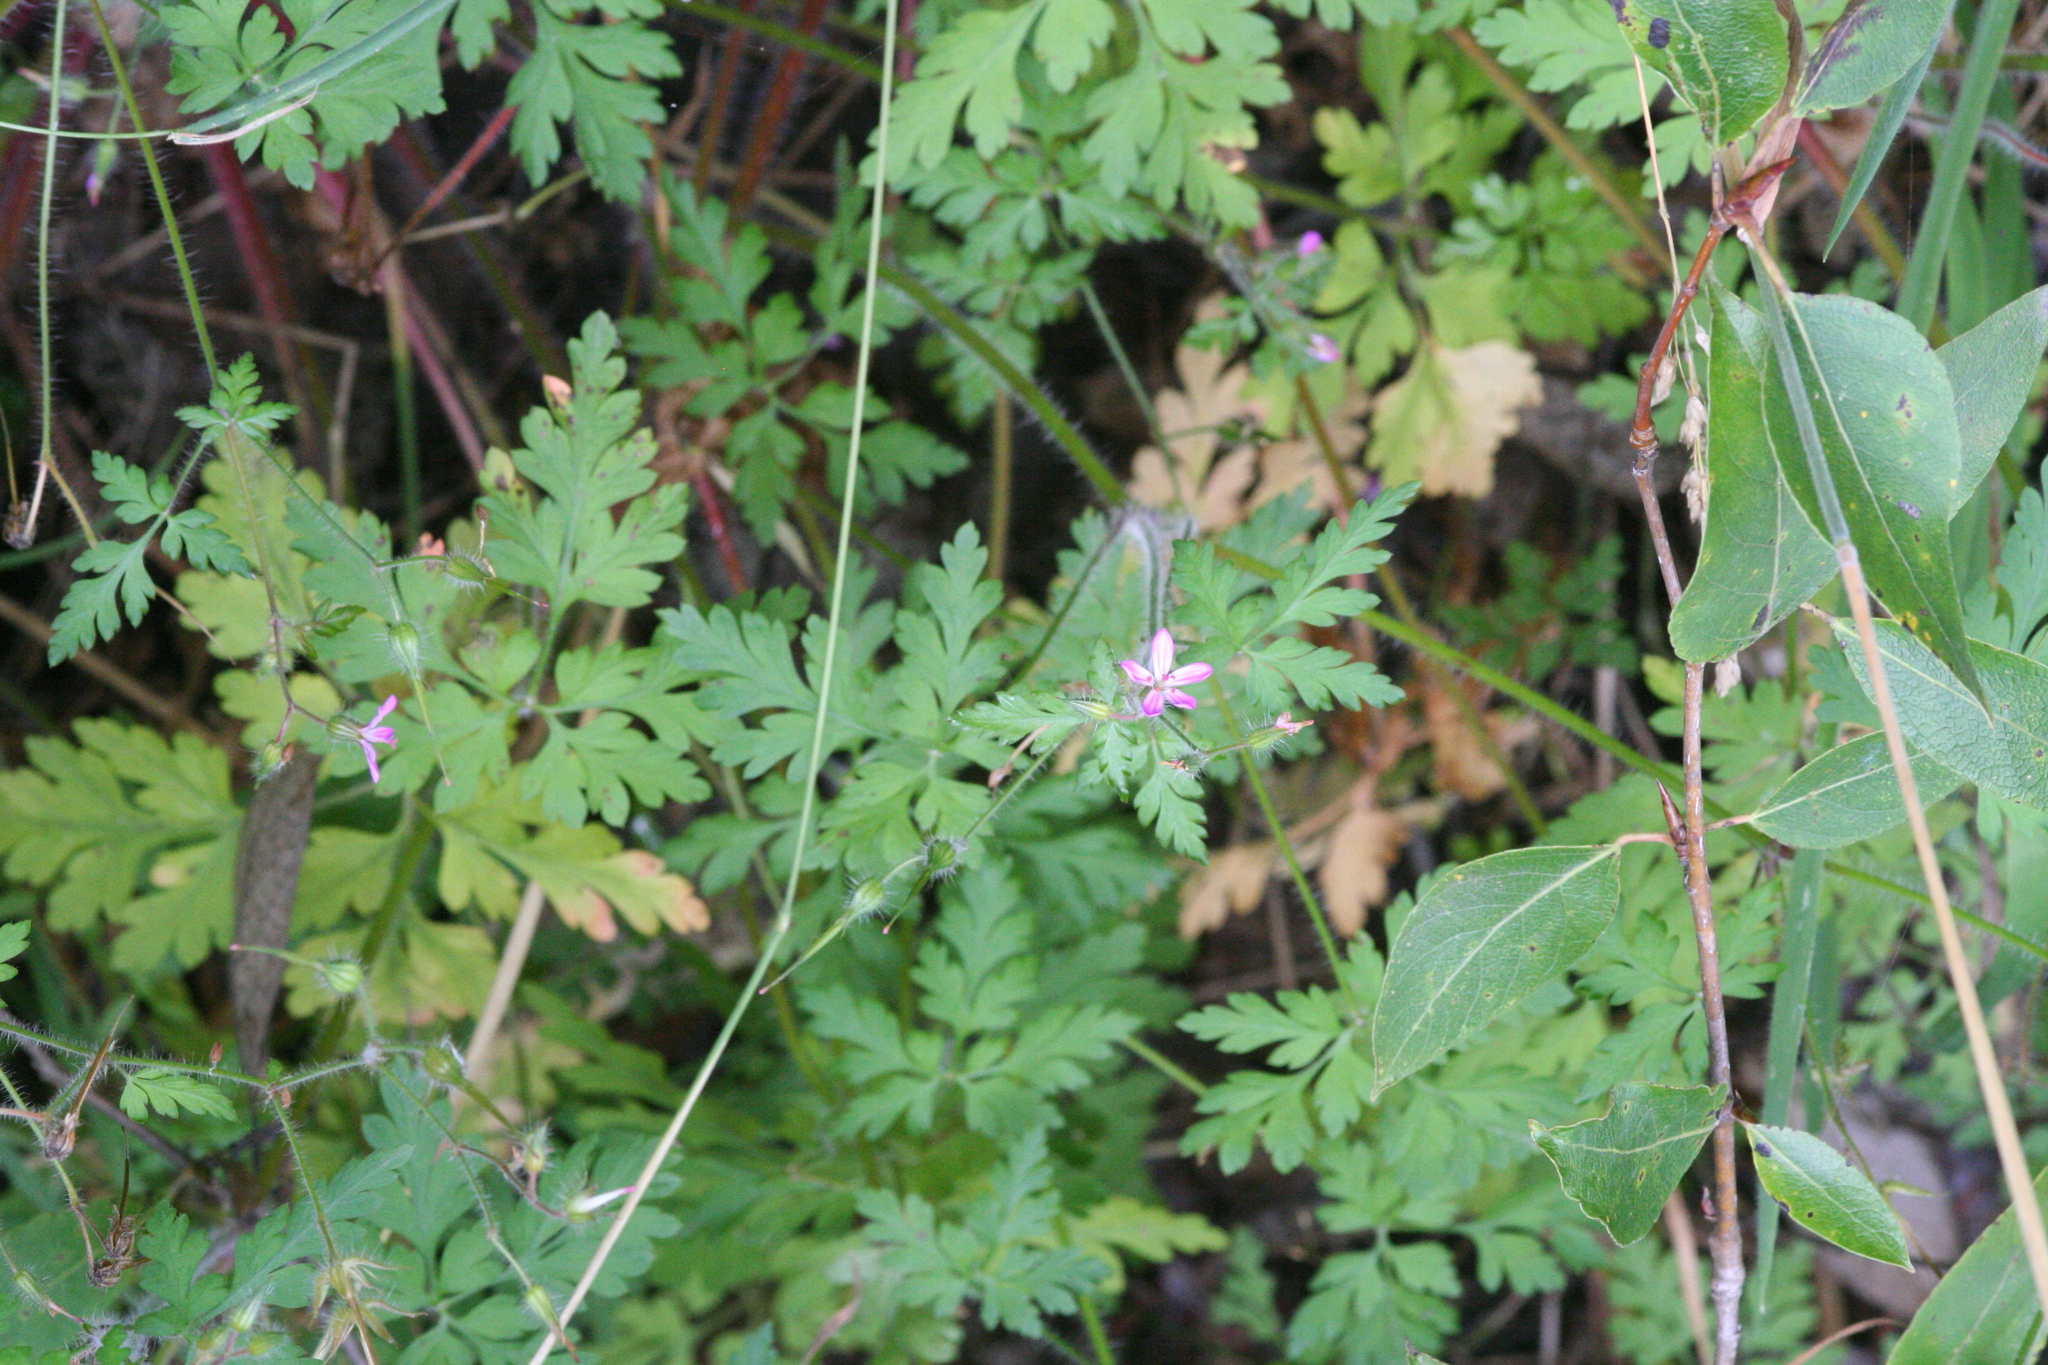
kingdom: Plantae
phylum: Tracheophyta
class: Magnoliopsida
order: Geraniales
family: Geraniaceae
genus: Geranium
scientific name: Geranium robertianum
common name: Herb-robert
